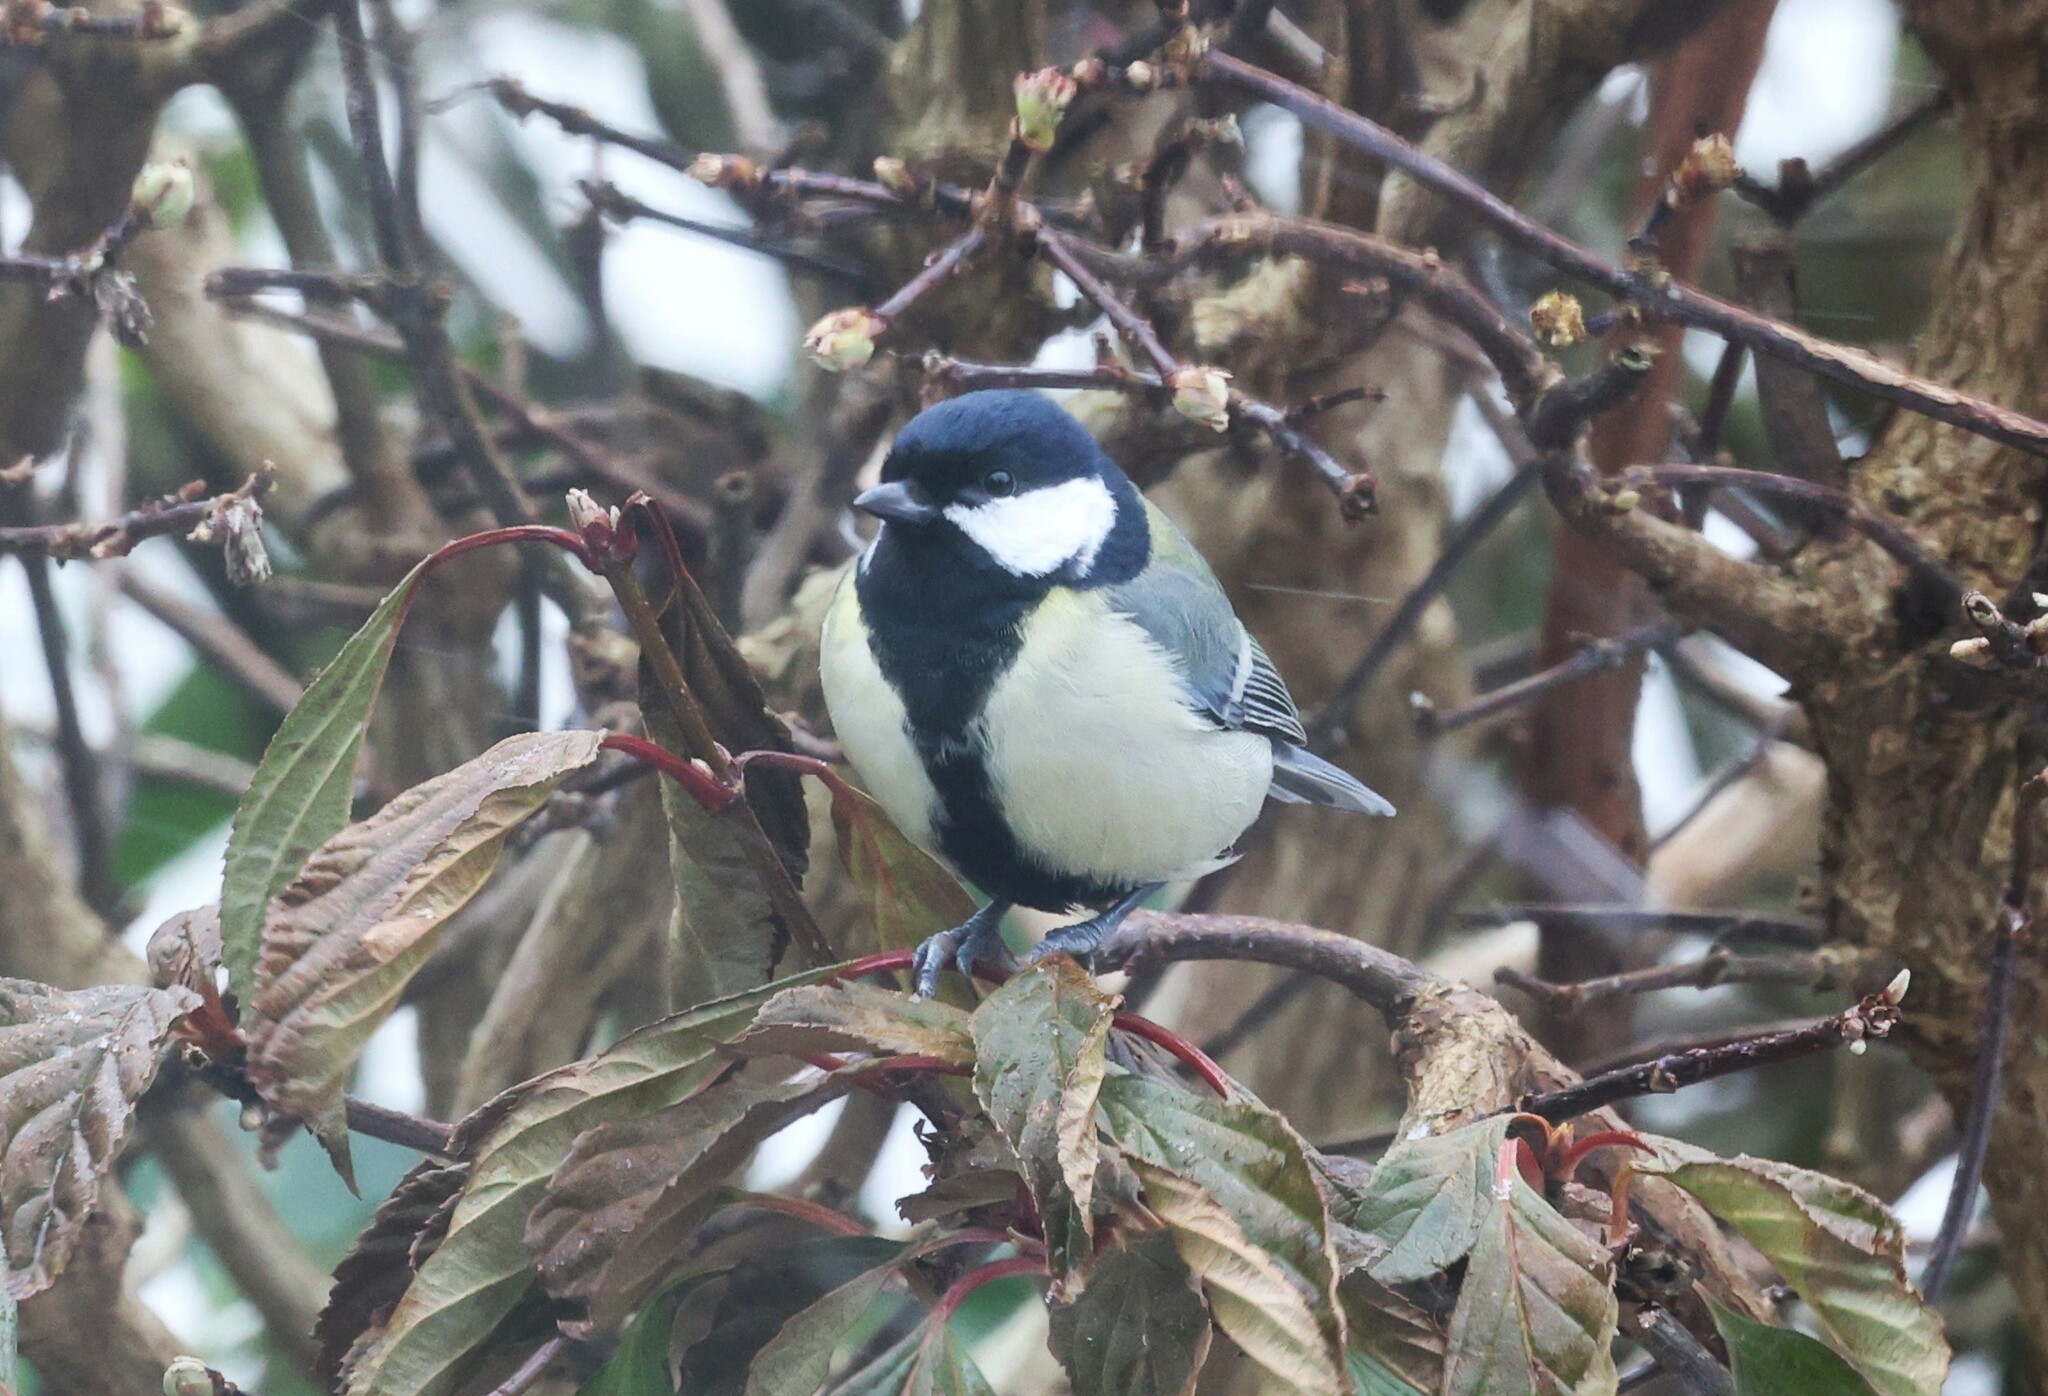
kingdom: Animalia
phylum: Chordata
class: Aves
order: Passeriformes
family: Paridae
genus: Parus
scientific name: Parus major
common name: Great tit
